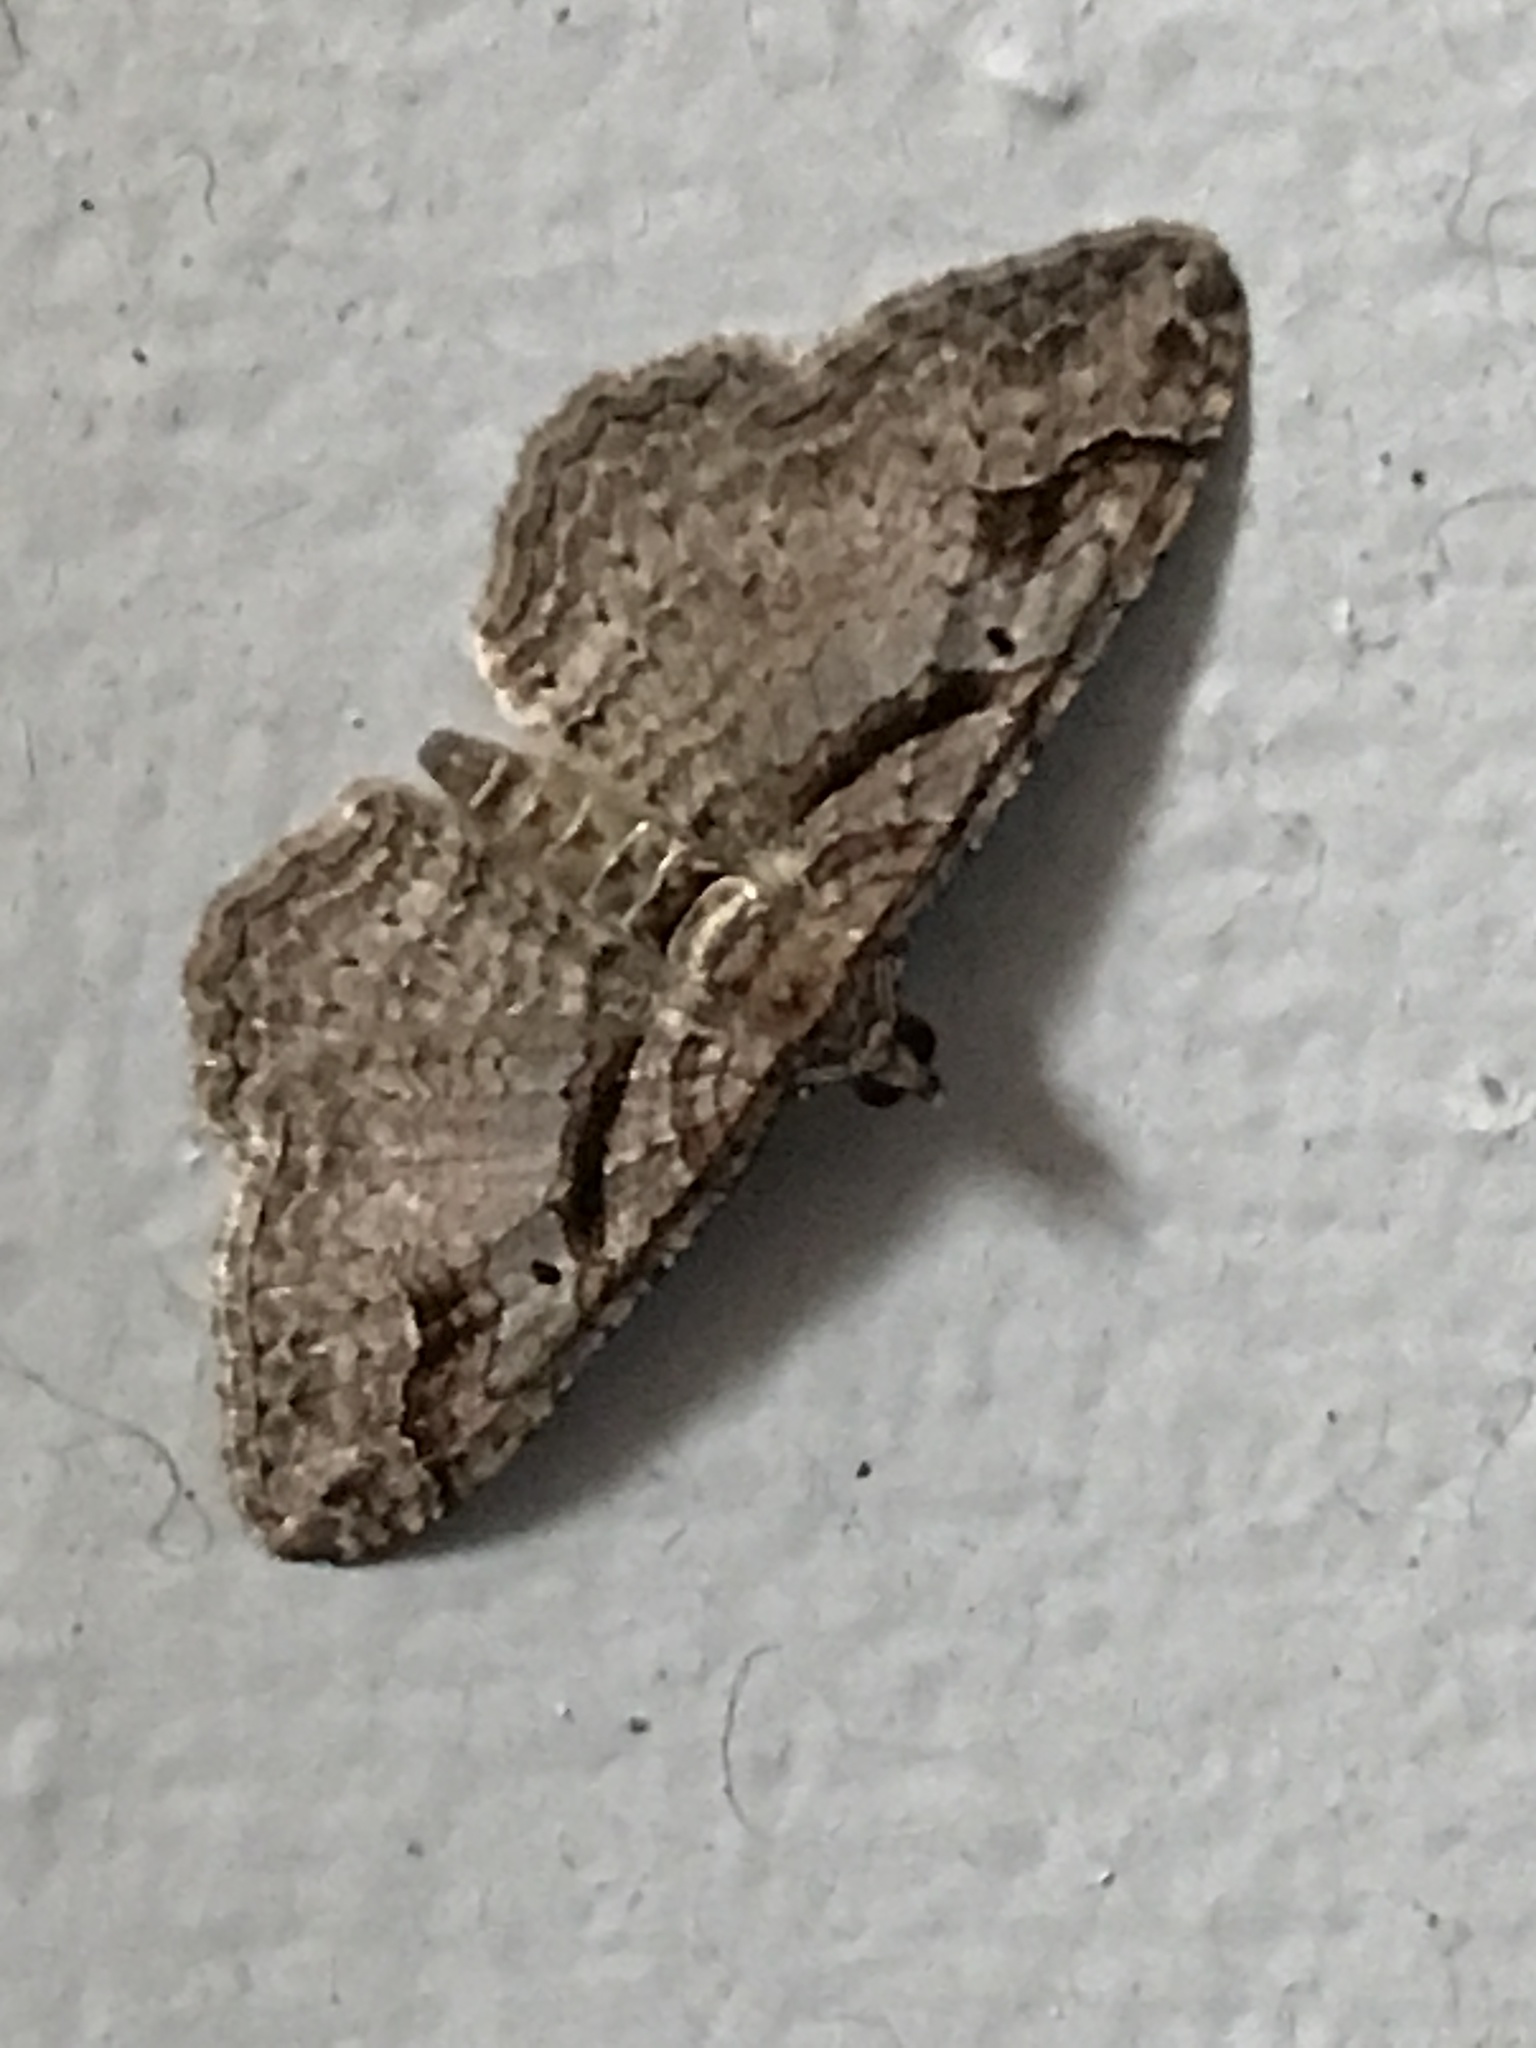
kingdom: Animalia
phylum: Arthropoda
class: Insecta
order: Lepidoptera
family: Geometridae
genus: Costaconvexa
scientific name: Costaconvexa centrostrigaria
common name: Bent-line carpet
